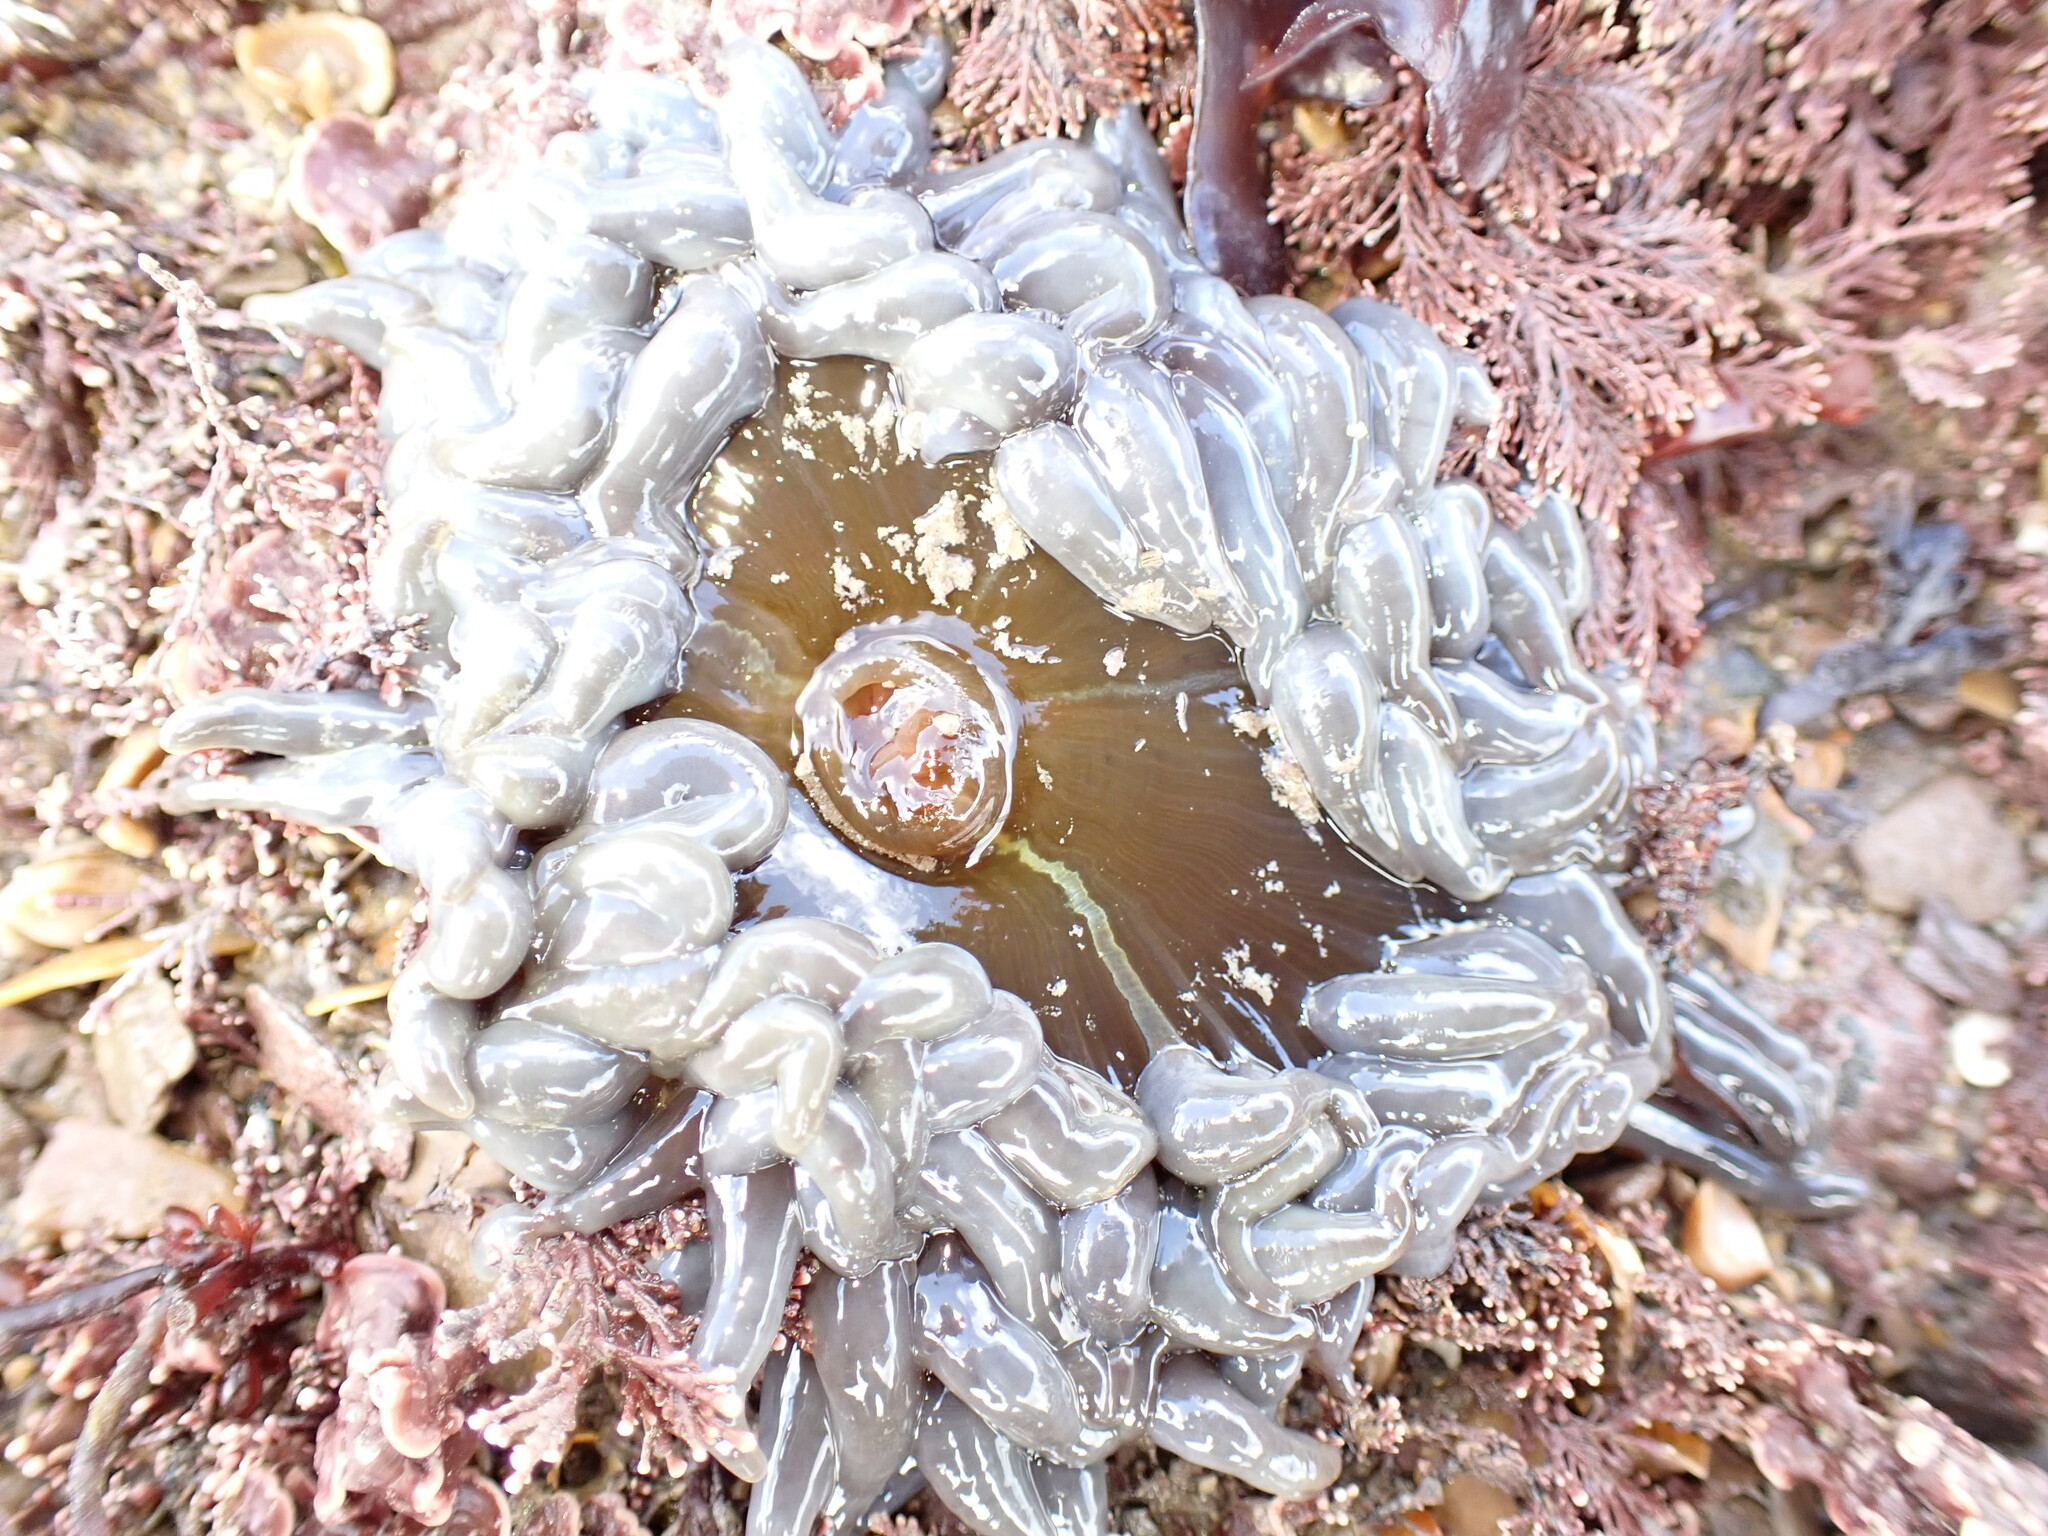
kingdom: Animalia
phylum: Cnidaria
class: Anthozoa
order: Actiniaria
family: Actiniidae
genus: Anemonia
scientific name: Anemonia viridis
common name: Snakelocks anemone
